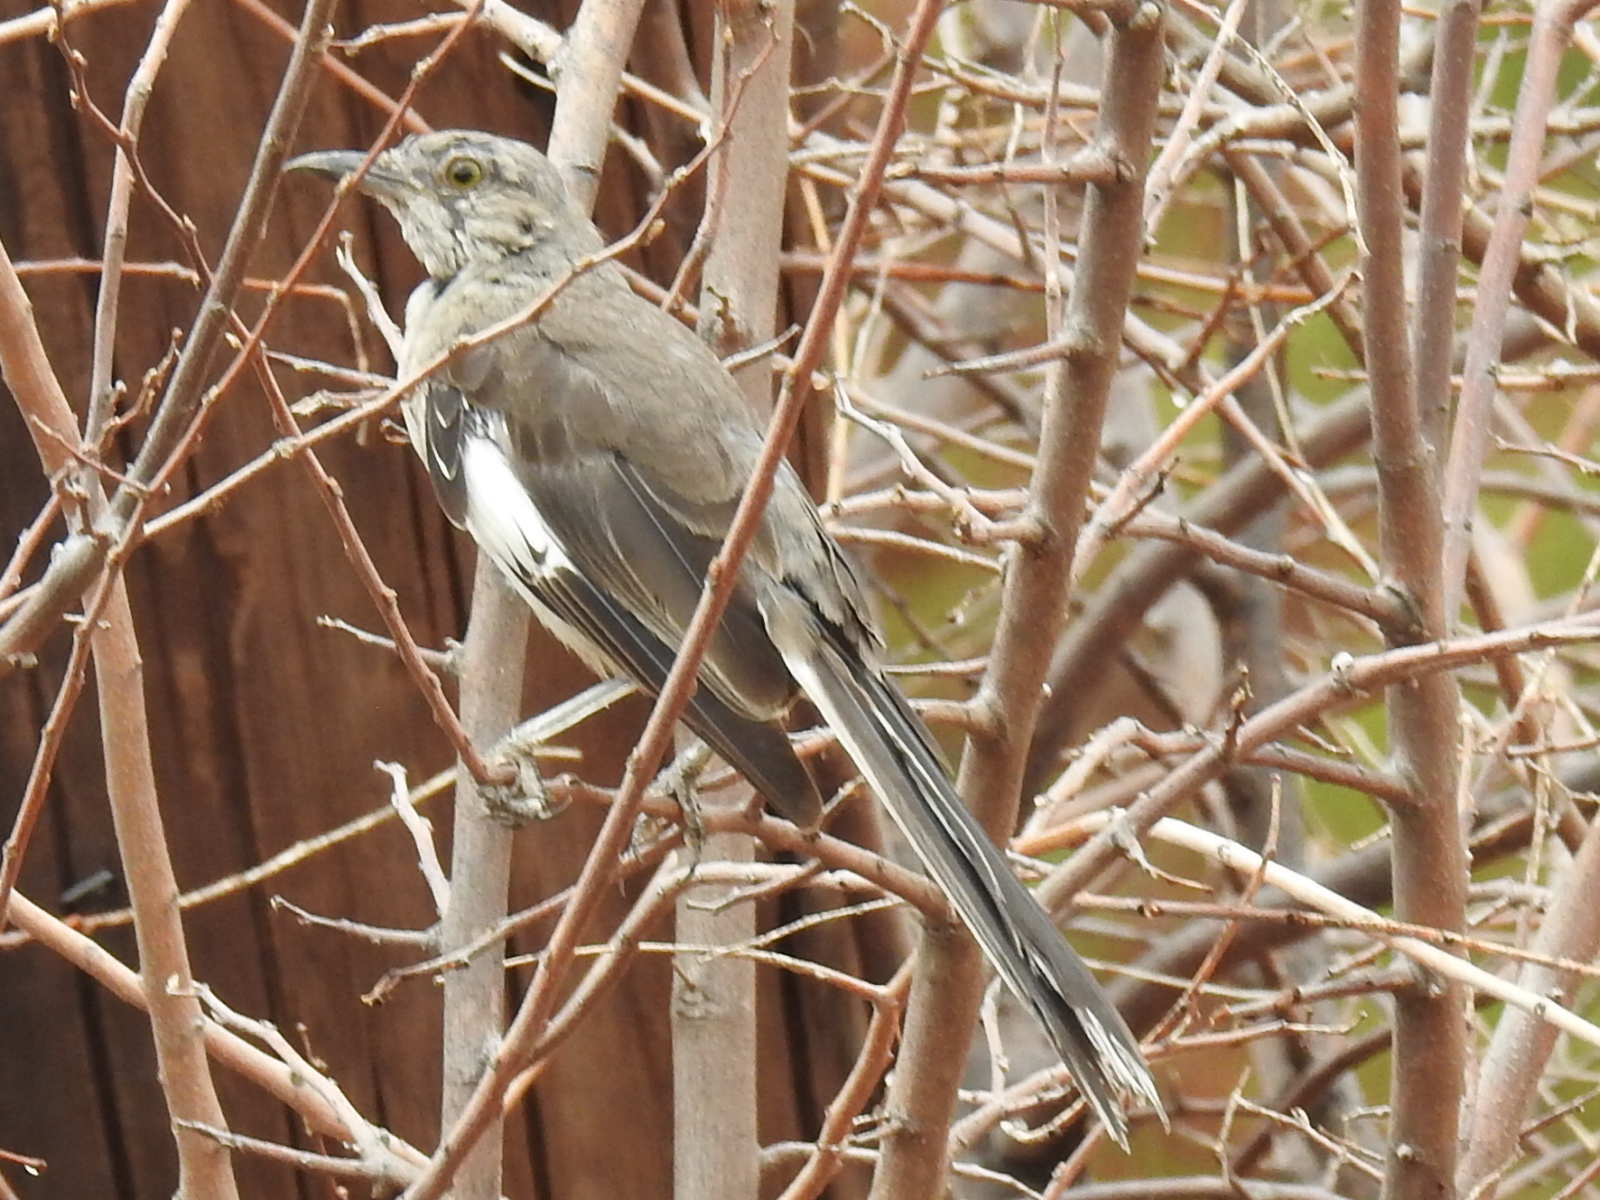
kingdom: Animalia
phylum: Chordata
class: Aves
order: Passeriformes
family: Mimidae
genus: Mimus
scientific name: Mimus polyglottos
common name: Northern mockingbird
